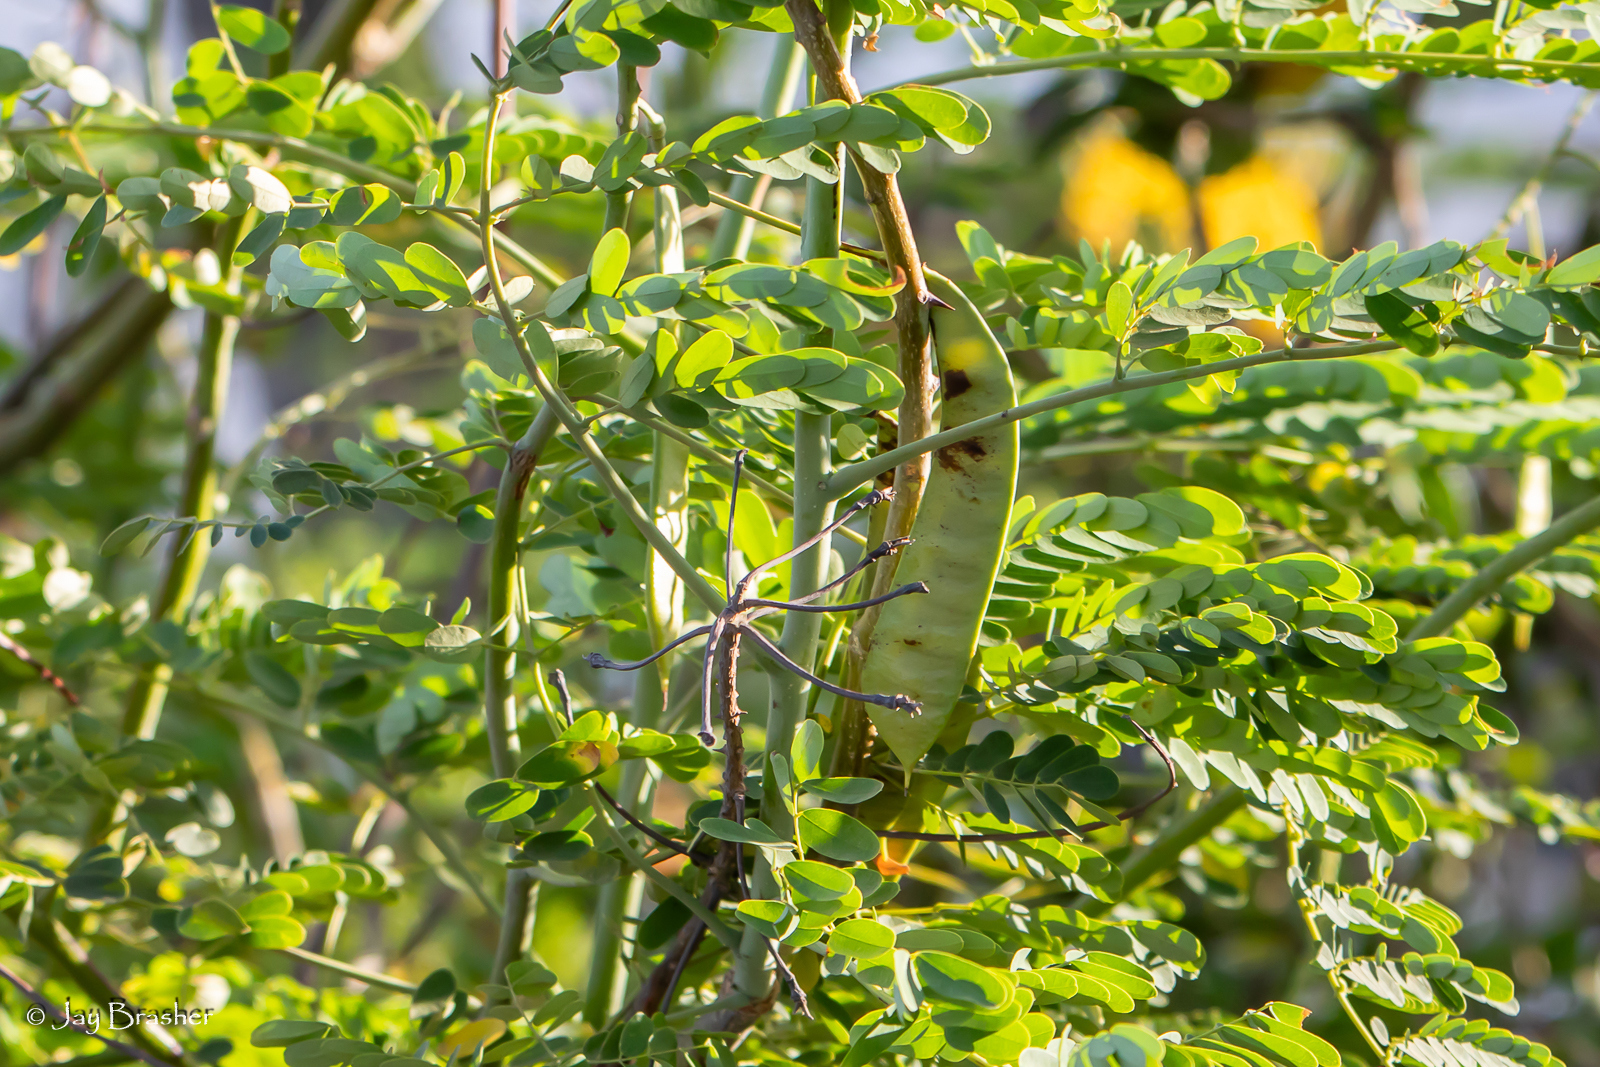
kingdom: Plantae
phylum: Tracheophyta
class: Magnoliopsida
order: Fabales
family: Fabaceae
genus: Caesalpinia
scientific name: Caesalpinia pulcherrima
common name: Pride-of-barbados
